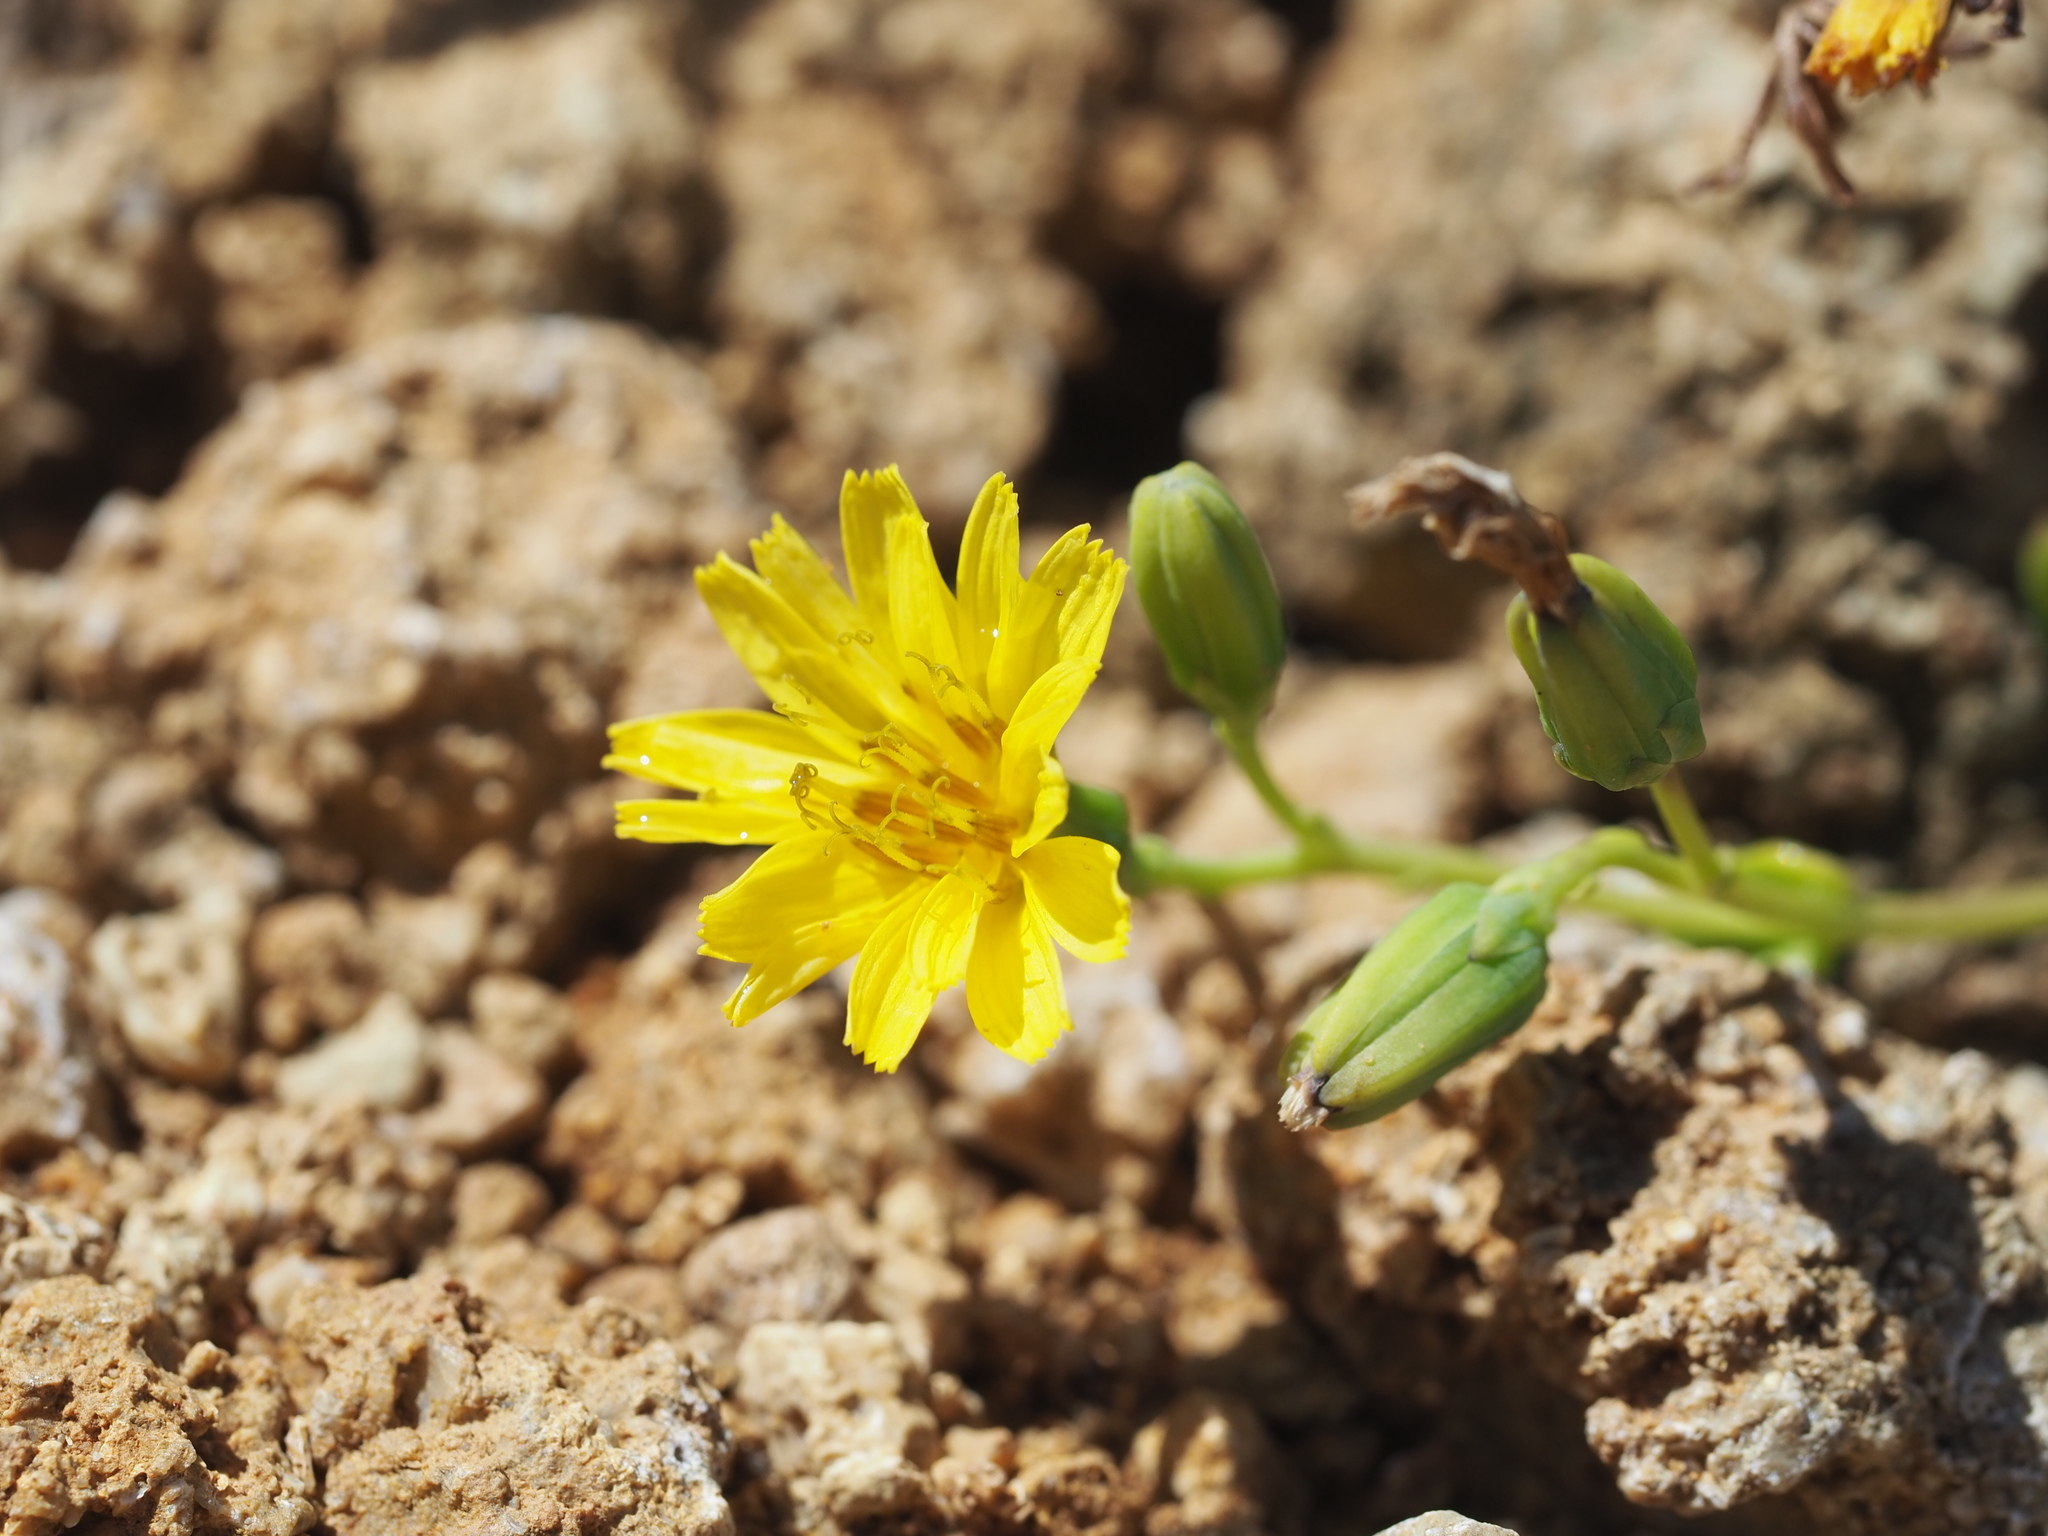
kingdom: Plantae
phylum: Tracheophyta
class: Magnoliopsida
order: Asterales
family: Asteraceae
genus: Crepidiastrum
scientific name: Crepidiastrum lanceolatum
